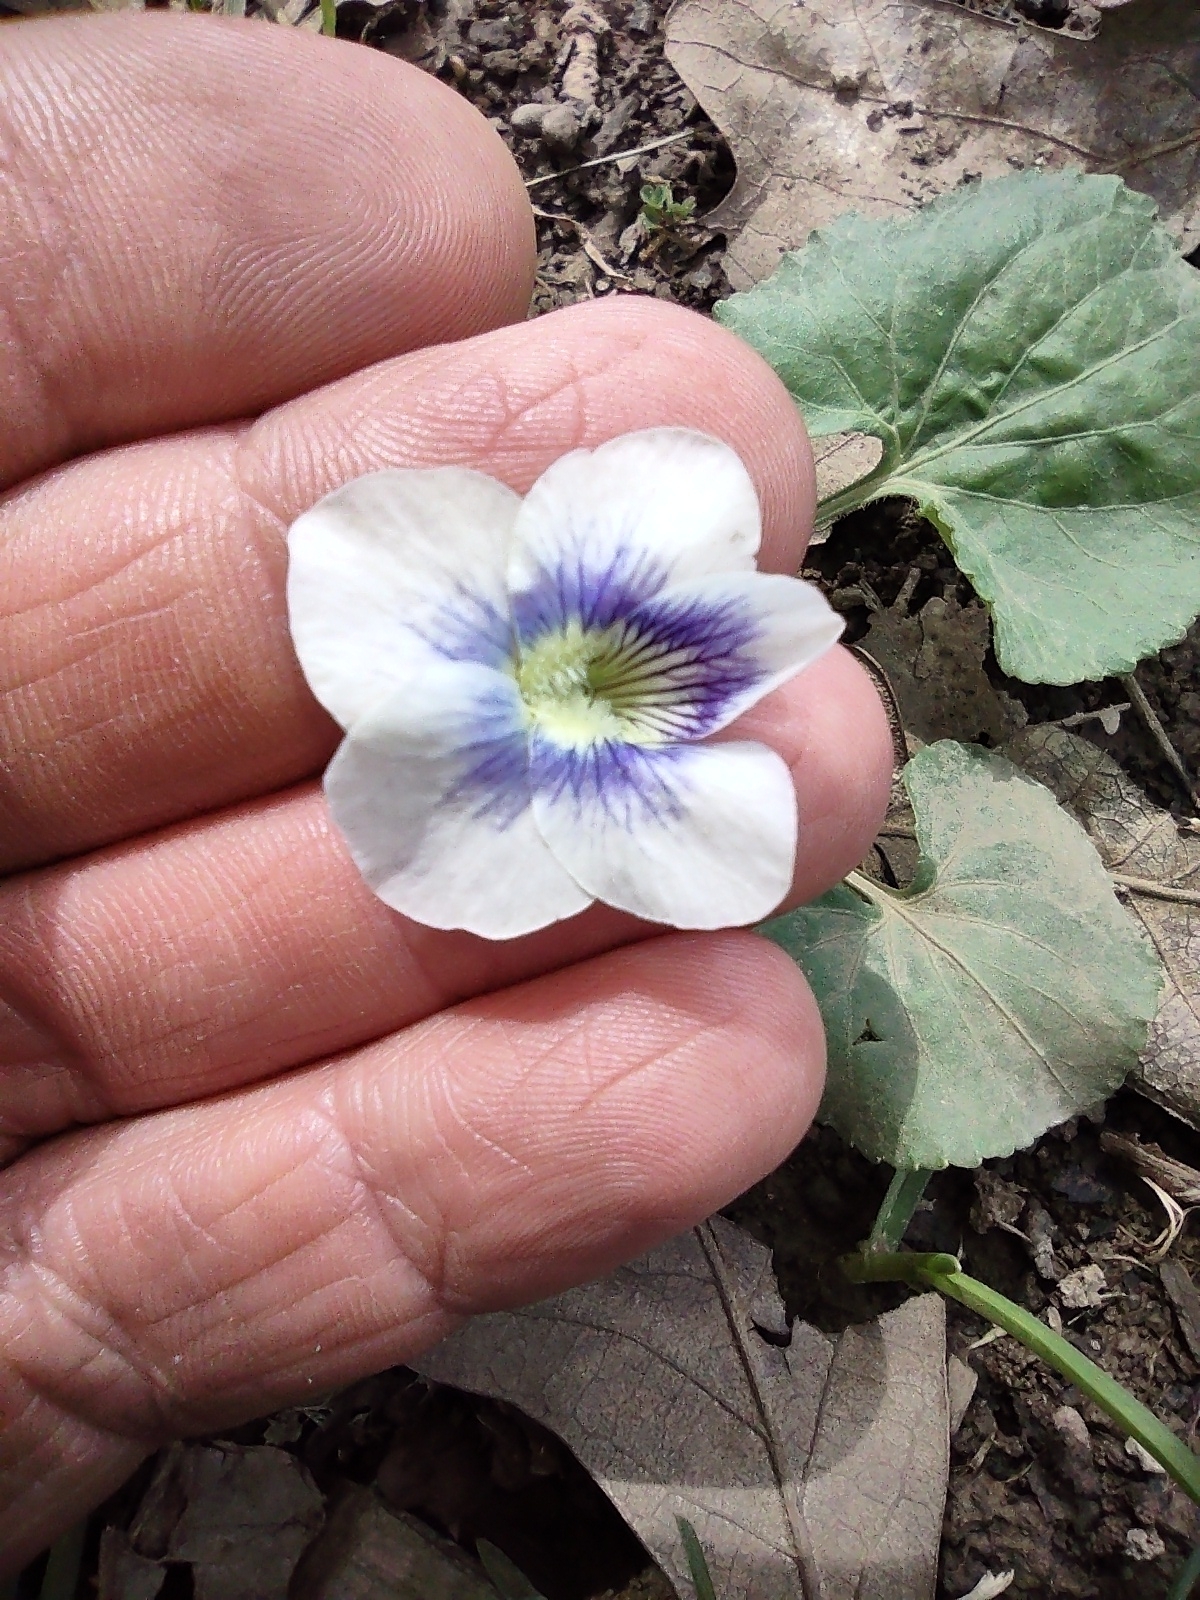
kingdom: Plantae
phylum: Tracheophyta
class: Magnoliopsida
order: Malpighiales
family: Violaceae
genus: Viola
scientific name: Viola sororia
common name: Dooryard violet
